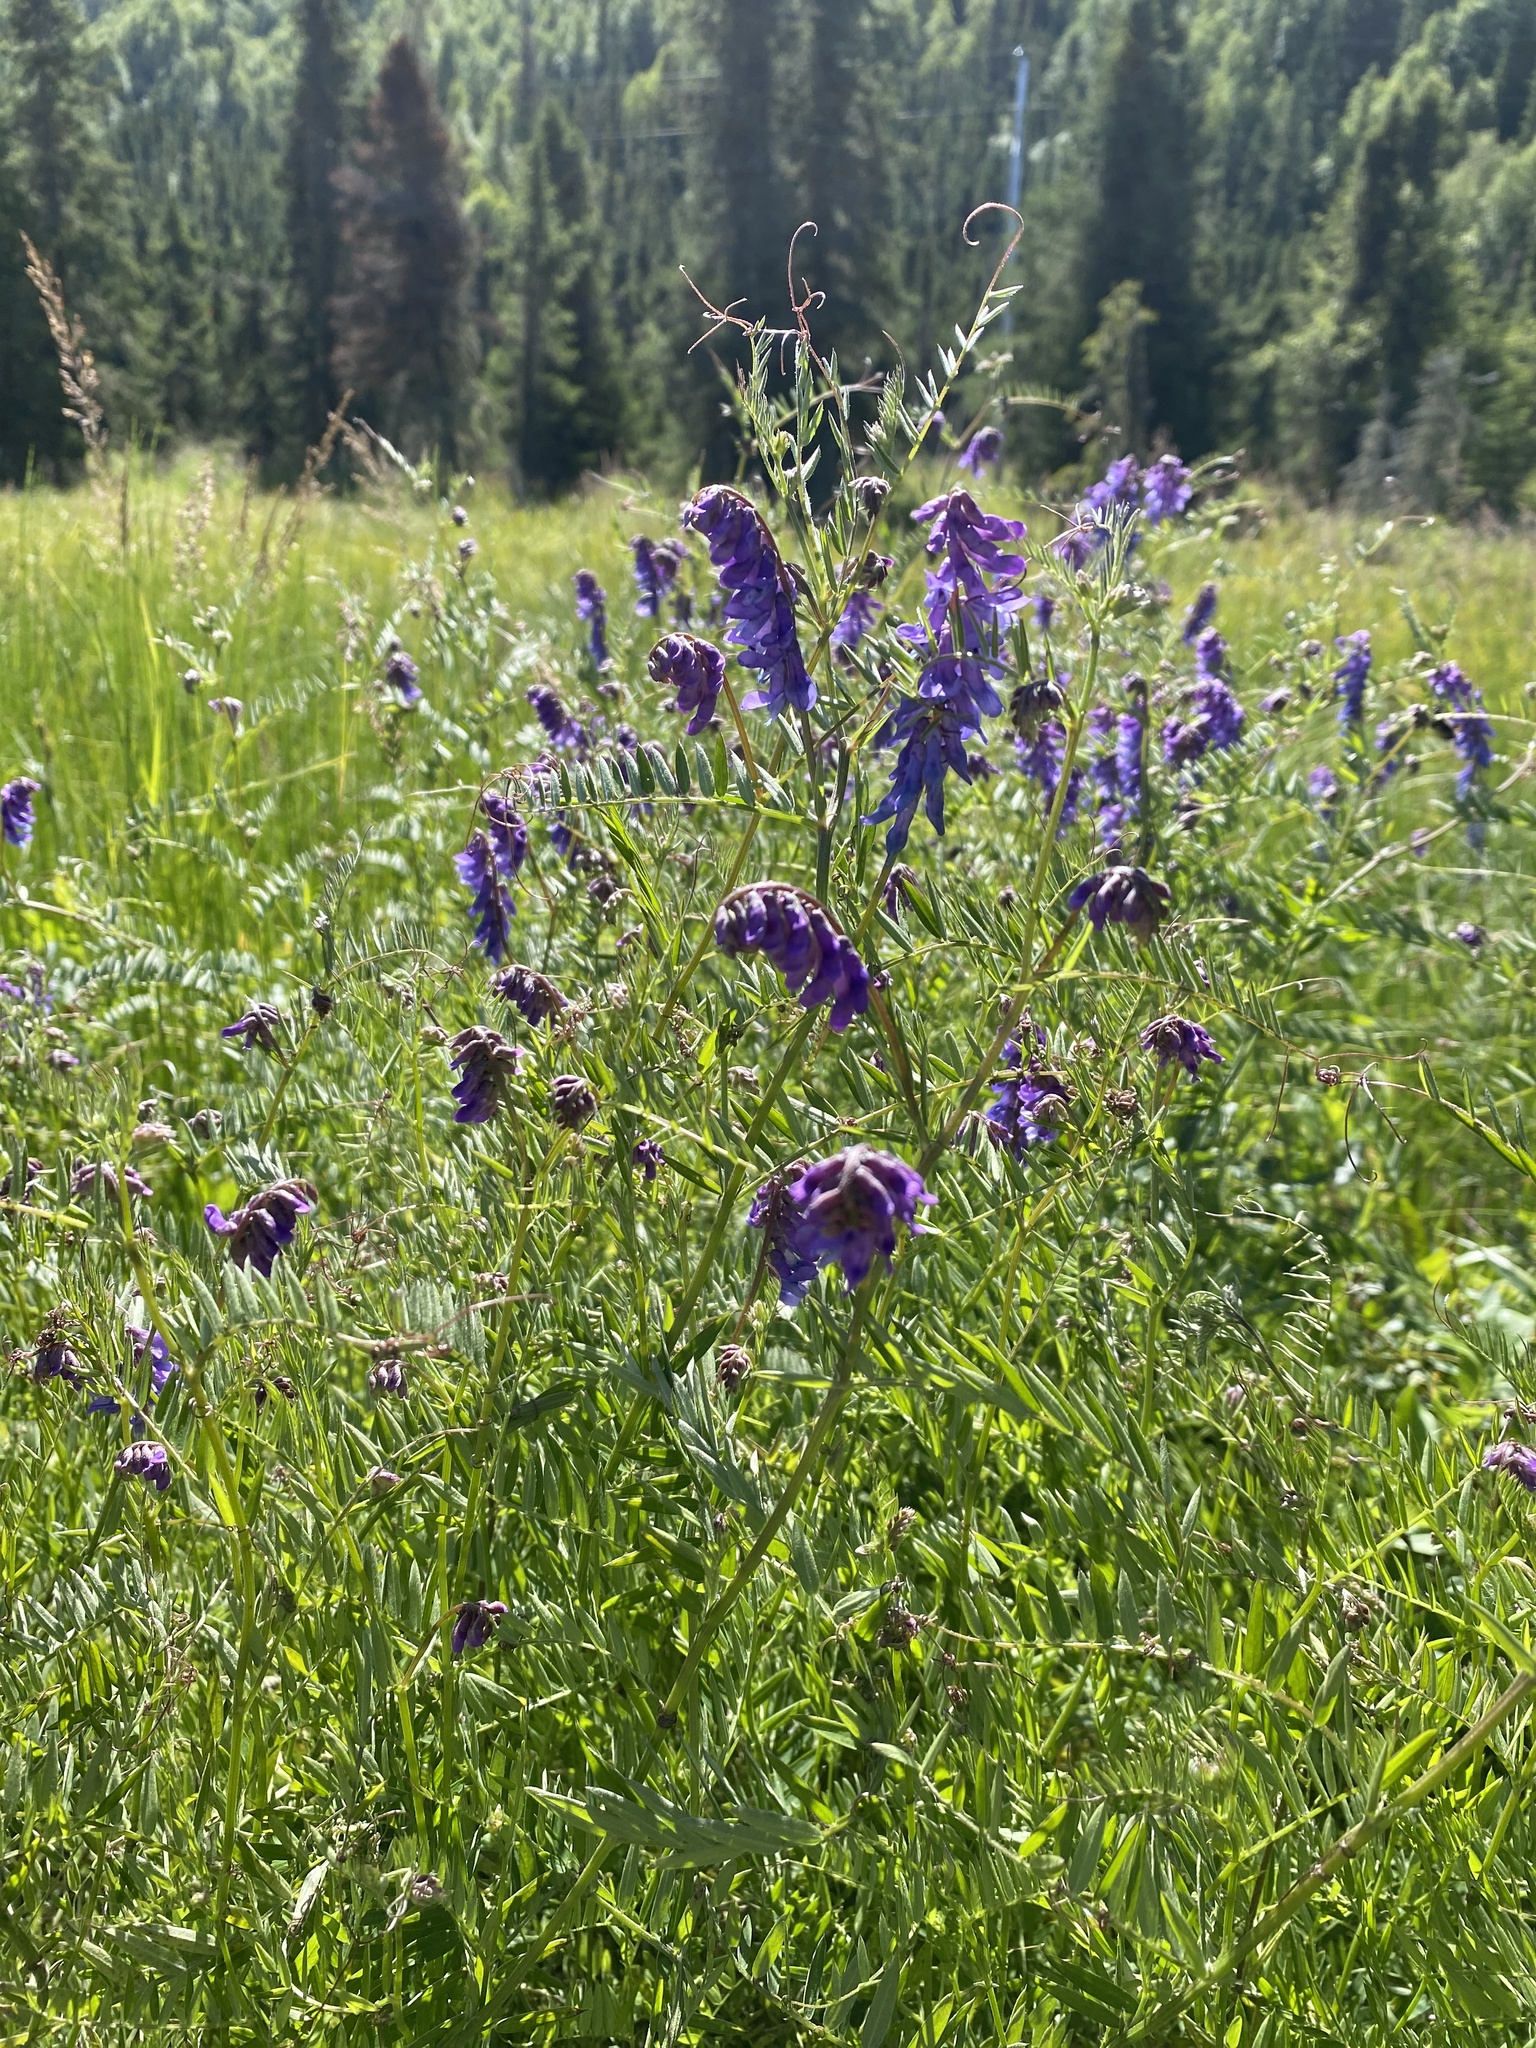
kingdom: Plantae
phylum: Tracheophyta
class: Magnoliopsida
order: Fabales
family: Fabaceae
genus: Vicia
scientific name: Vicia cracca
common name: Bird vetch
